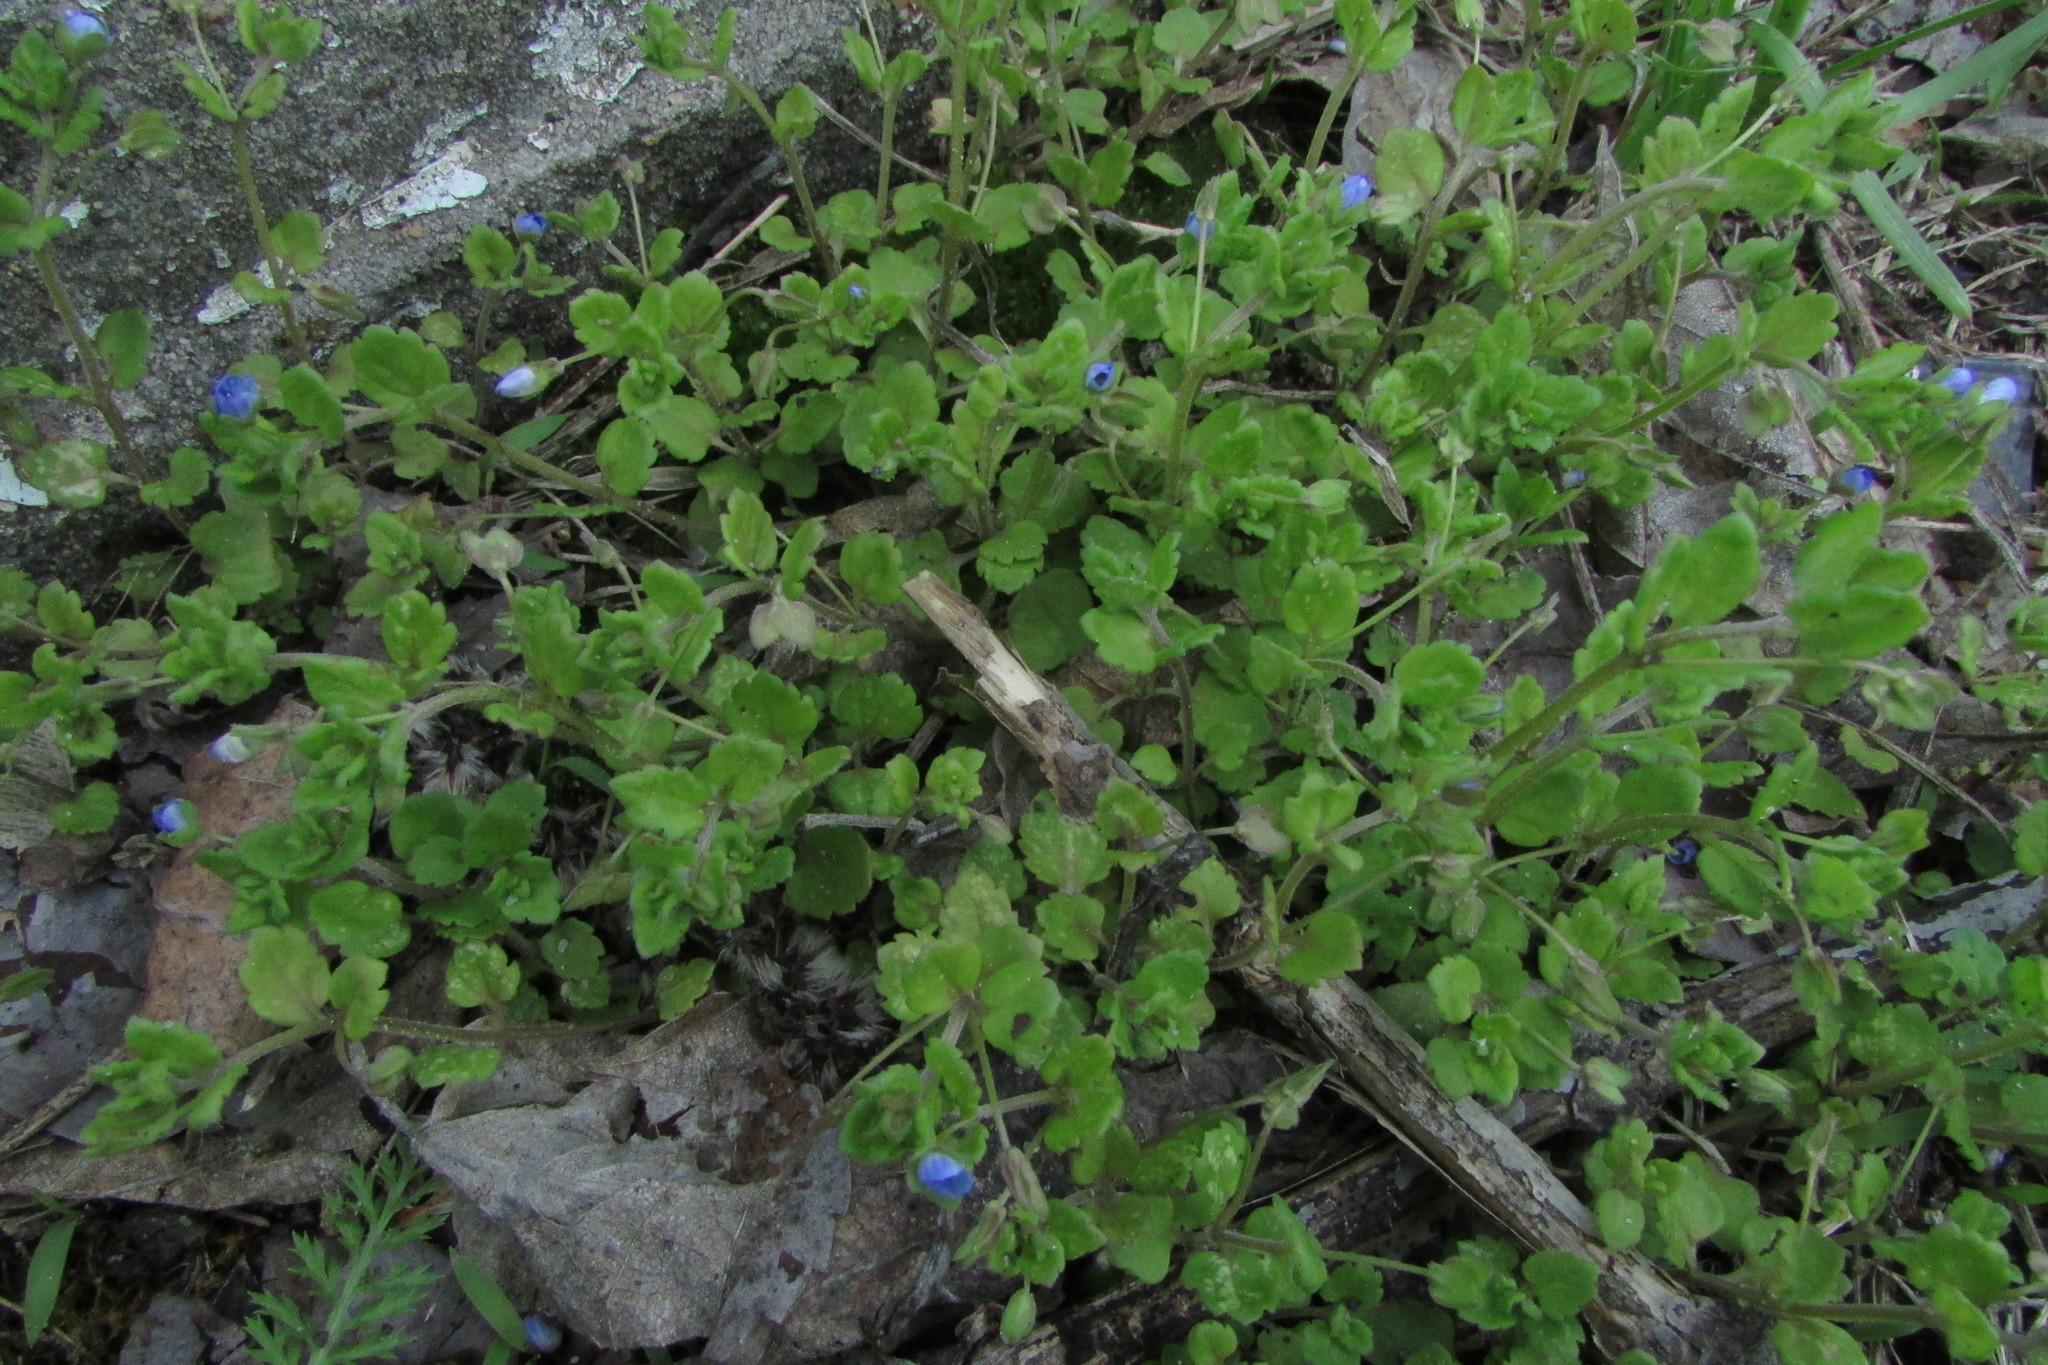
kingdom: Plantae
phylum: Tracheophyta
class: Magnoliopsida
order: Lamiales
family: Plantaginaceae
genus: Veronica
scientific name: Veronica polita
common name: Grey field-speedwell
